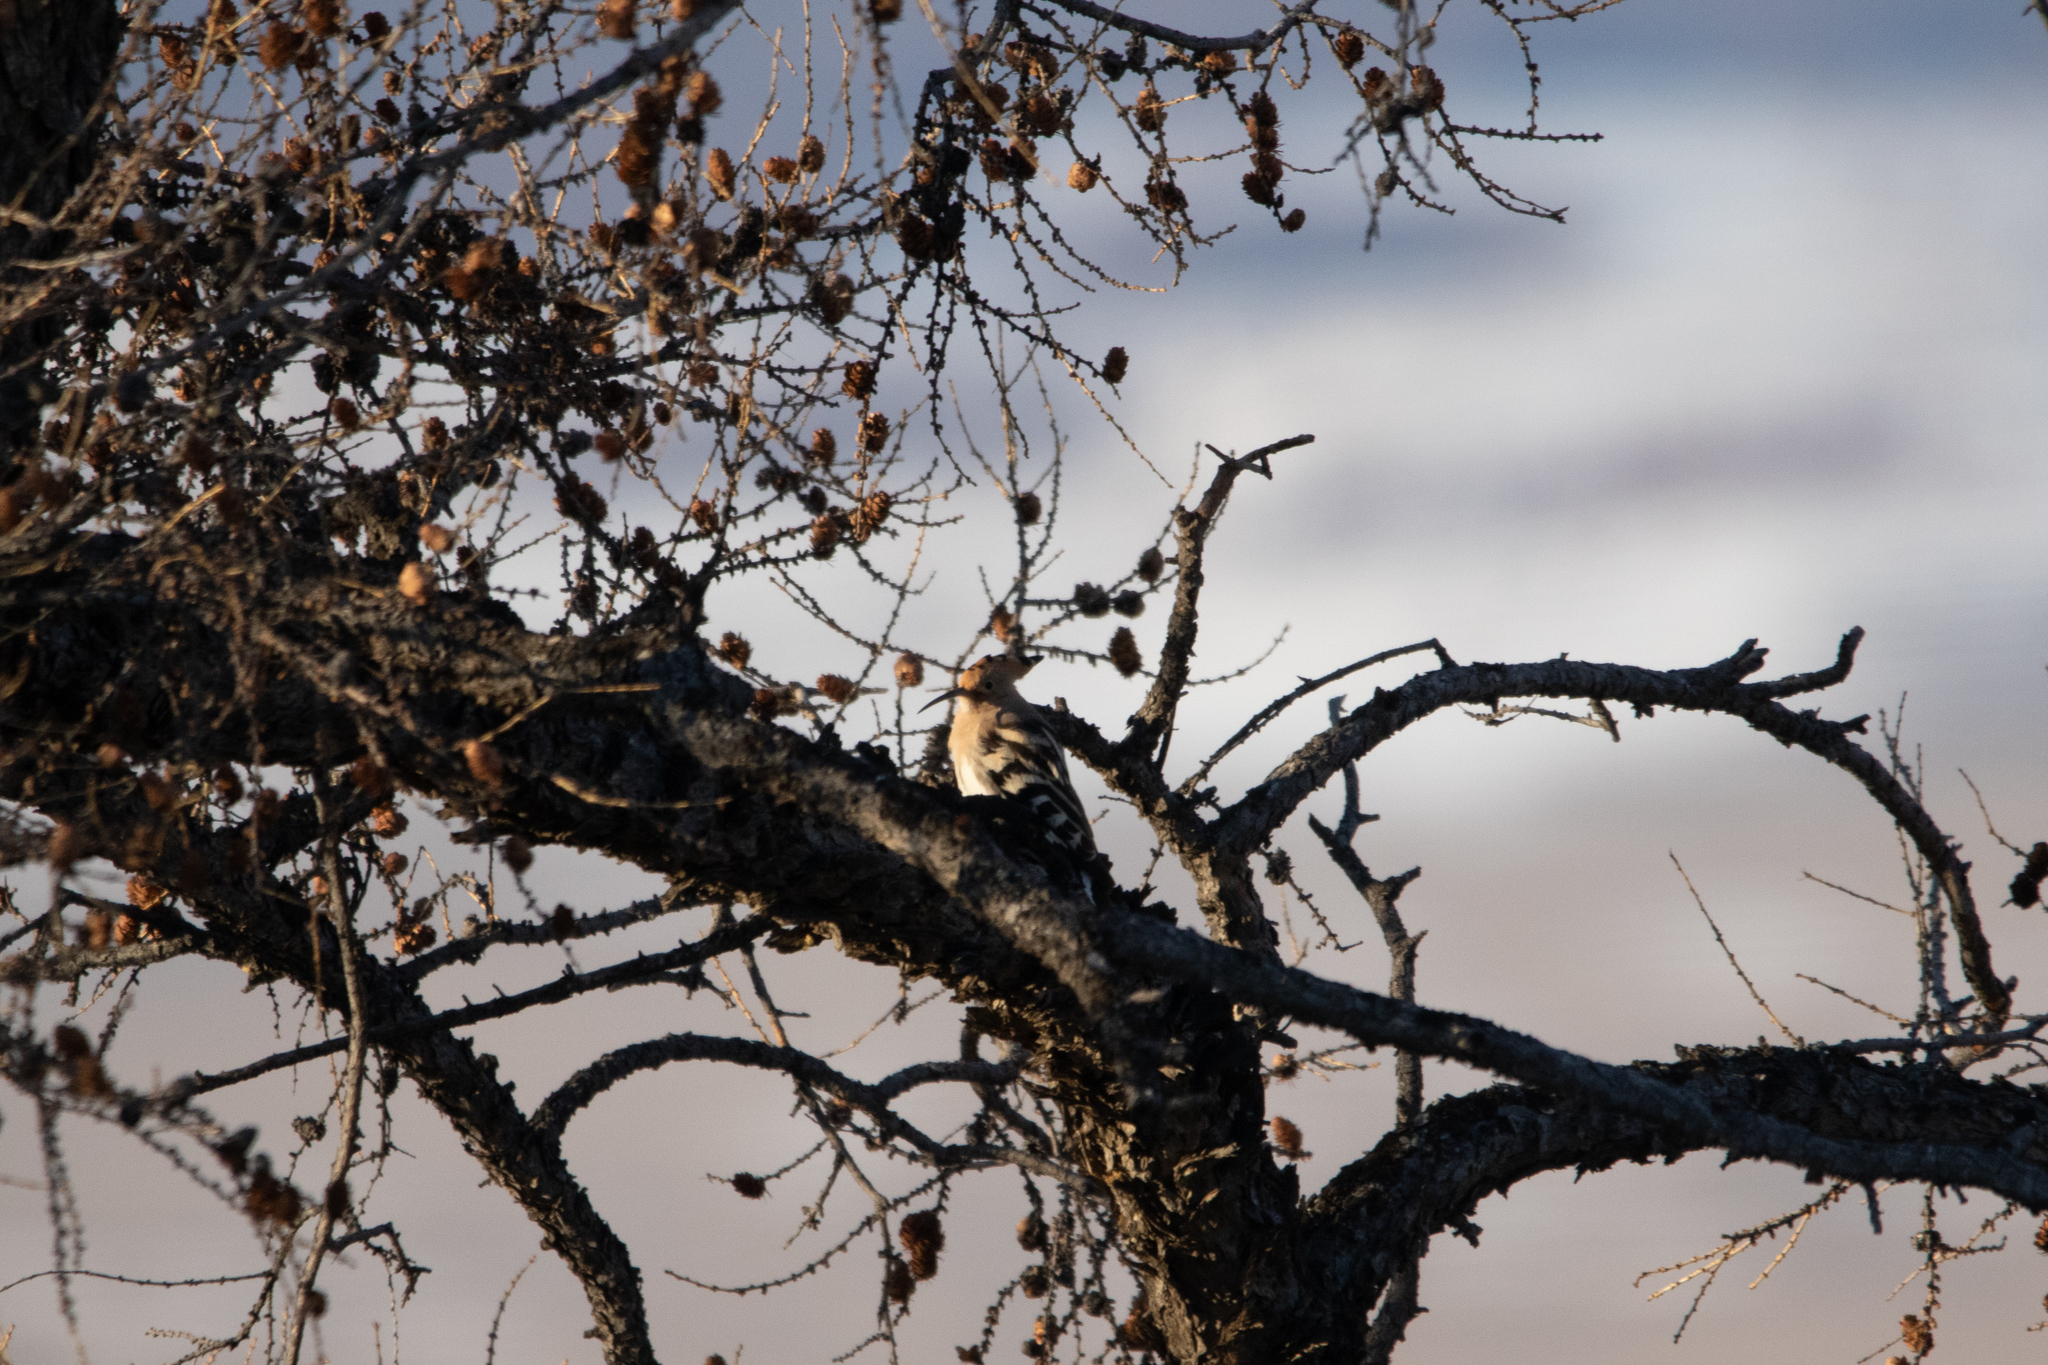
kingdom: Animalia
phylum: Chordata
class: Aves
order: Bucerotiformes
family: Upupidae
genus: Upupa
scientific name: Upupa epops
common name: Eurasian hoopoe
